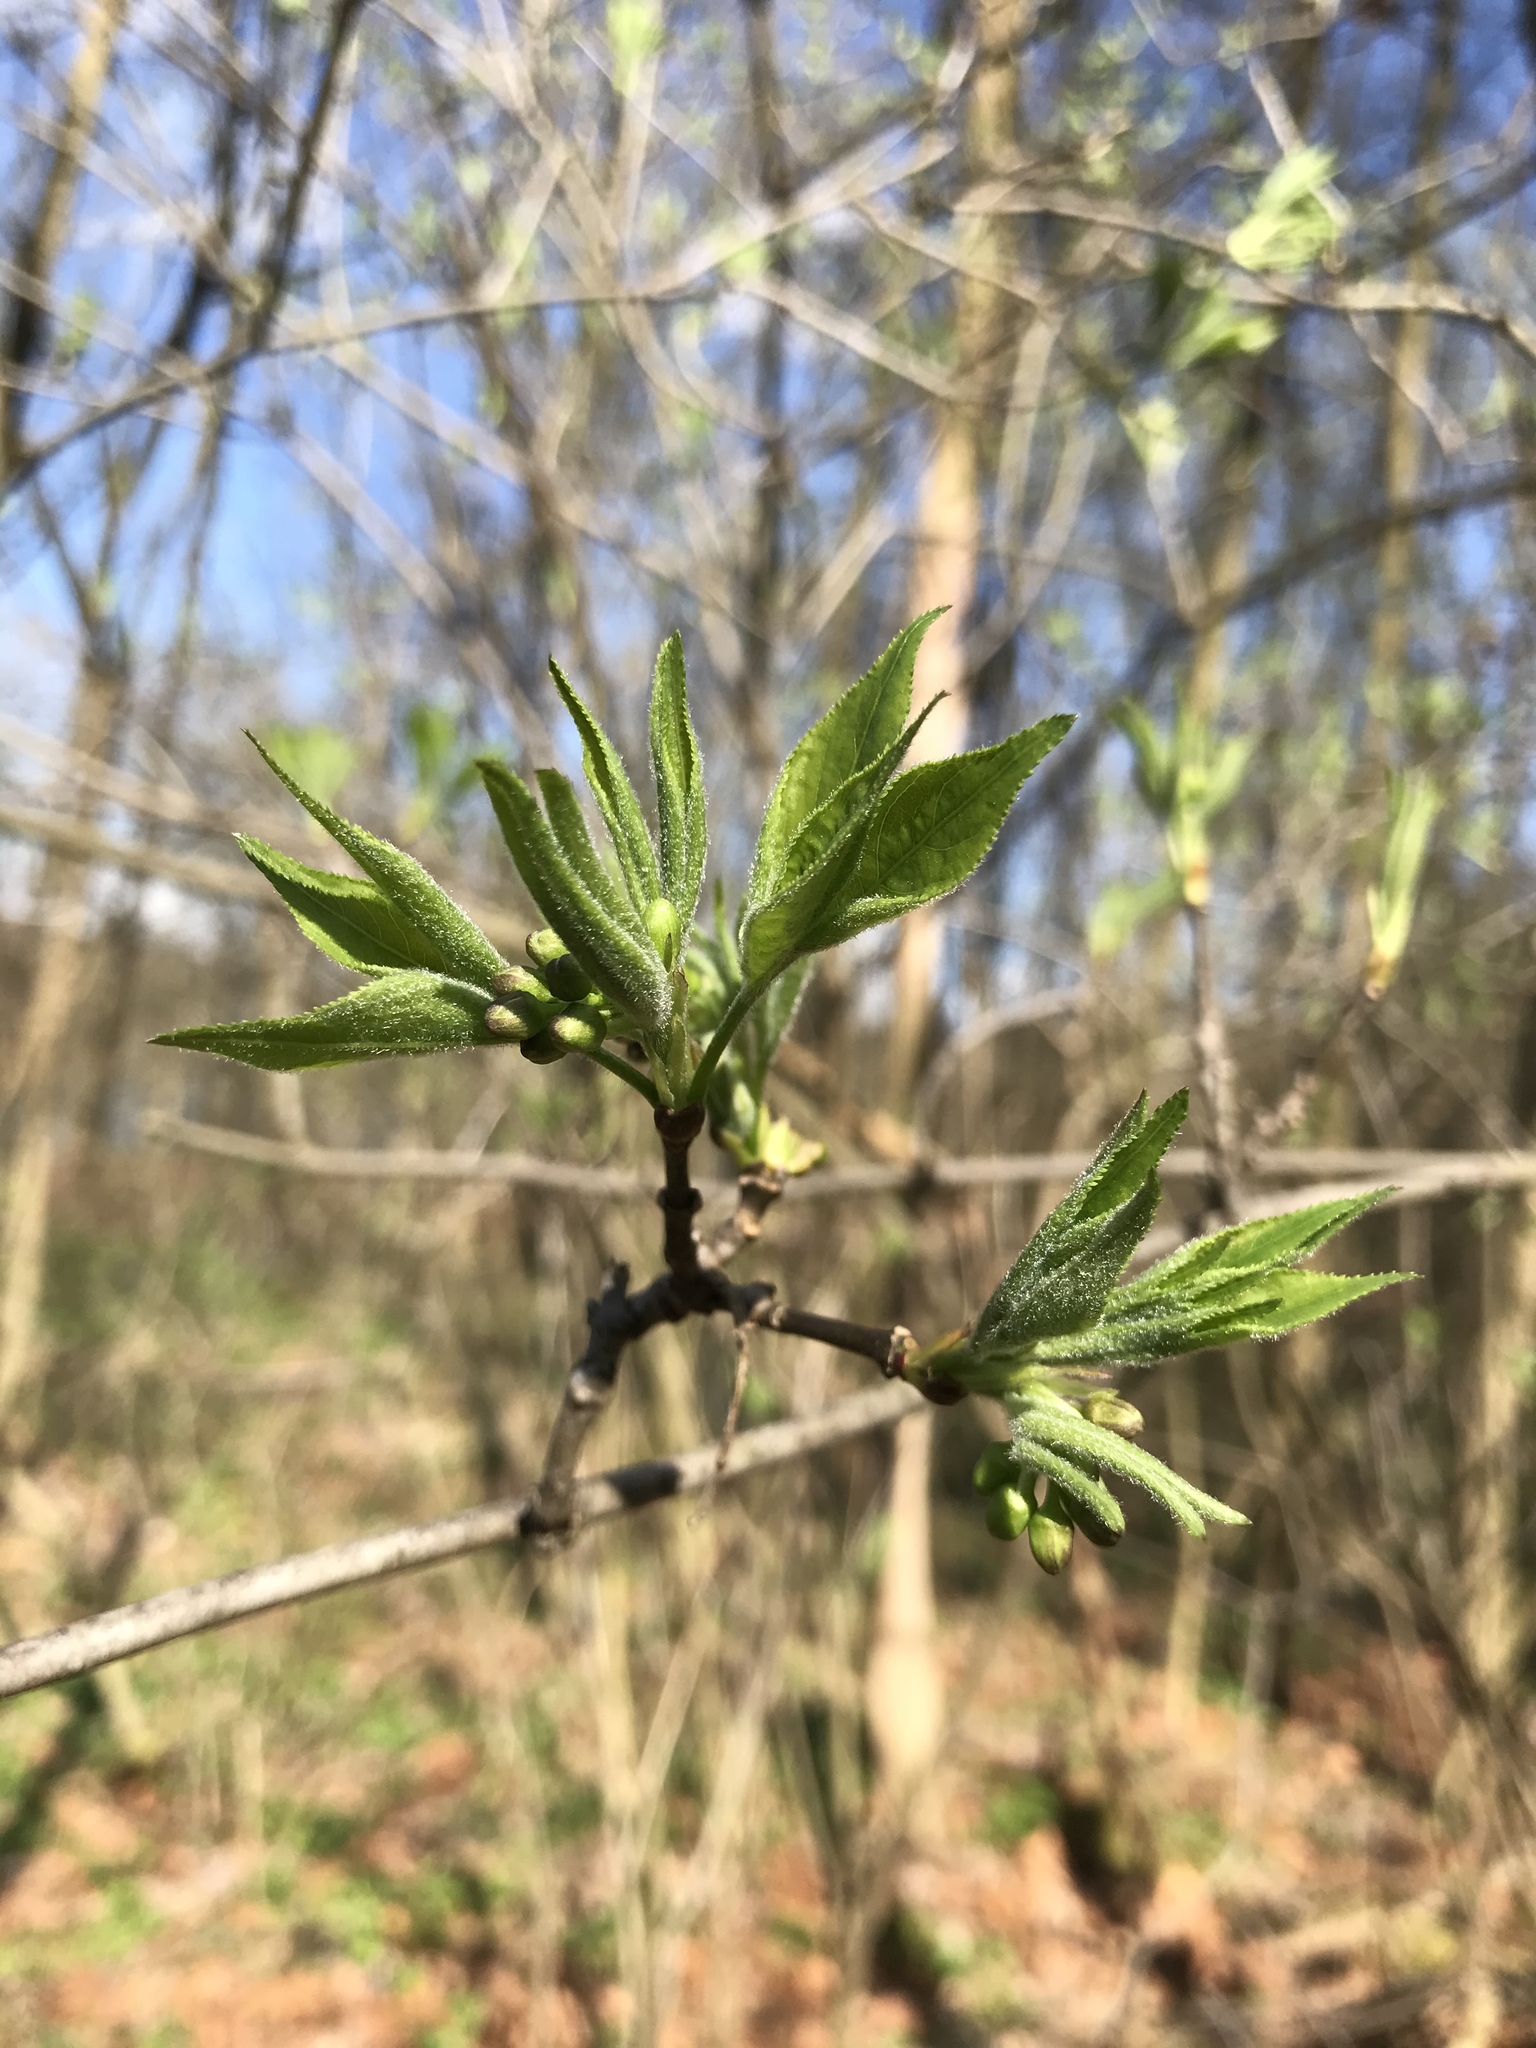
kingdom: Plantae
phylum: Tracheophyta
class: Magnoliopsida
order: Crossosomatales
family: Staphyleaceae
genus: Staphylea
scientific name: Staphylea trifolia
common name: American bladdernut
